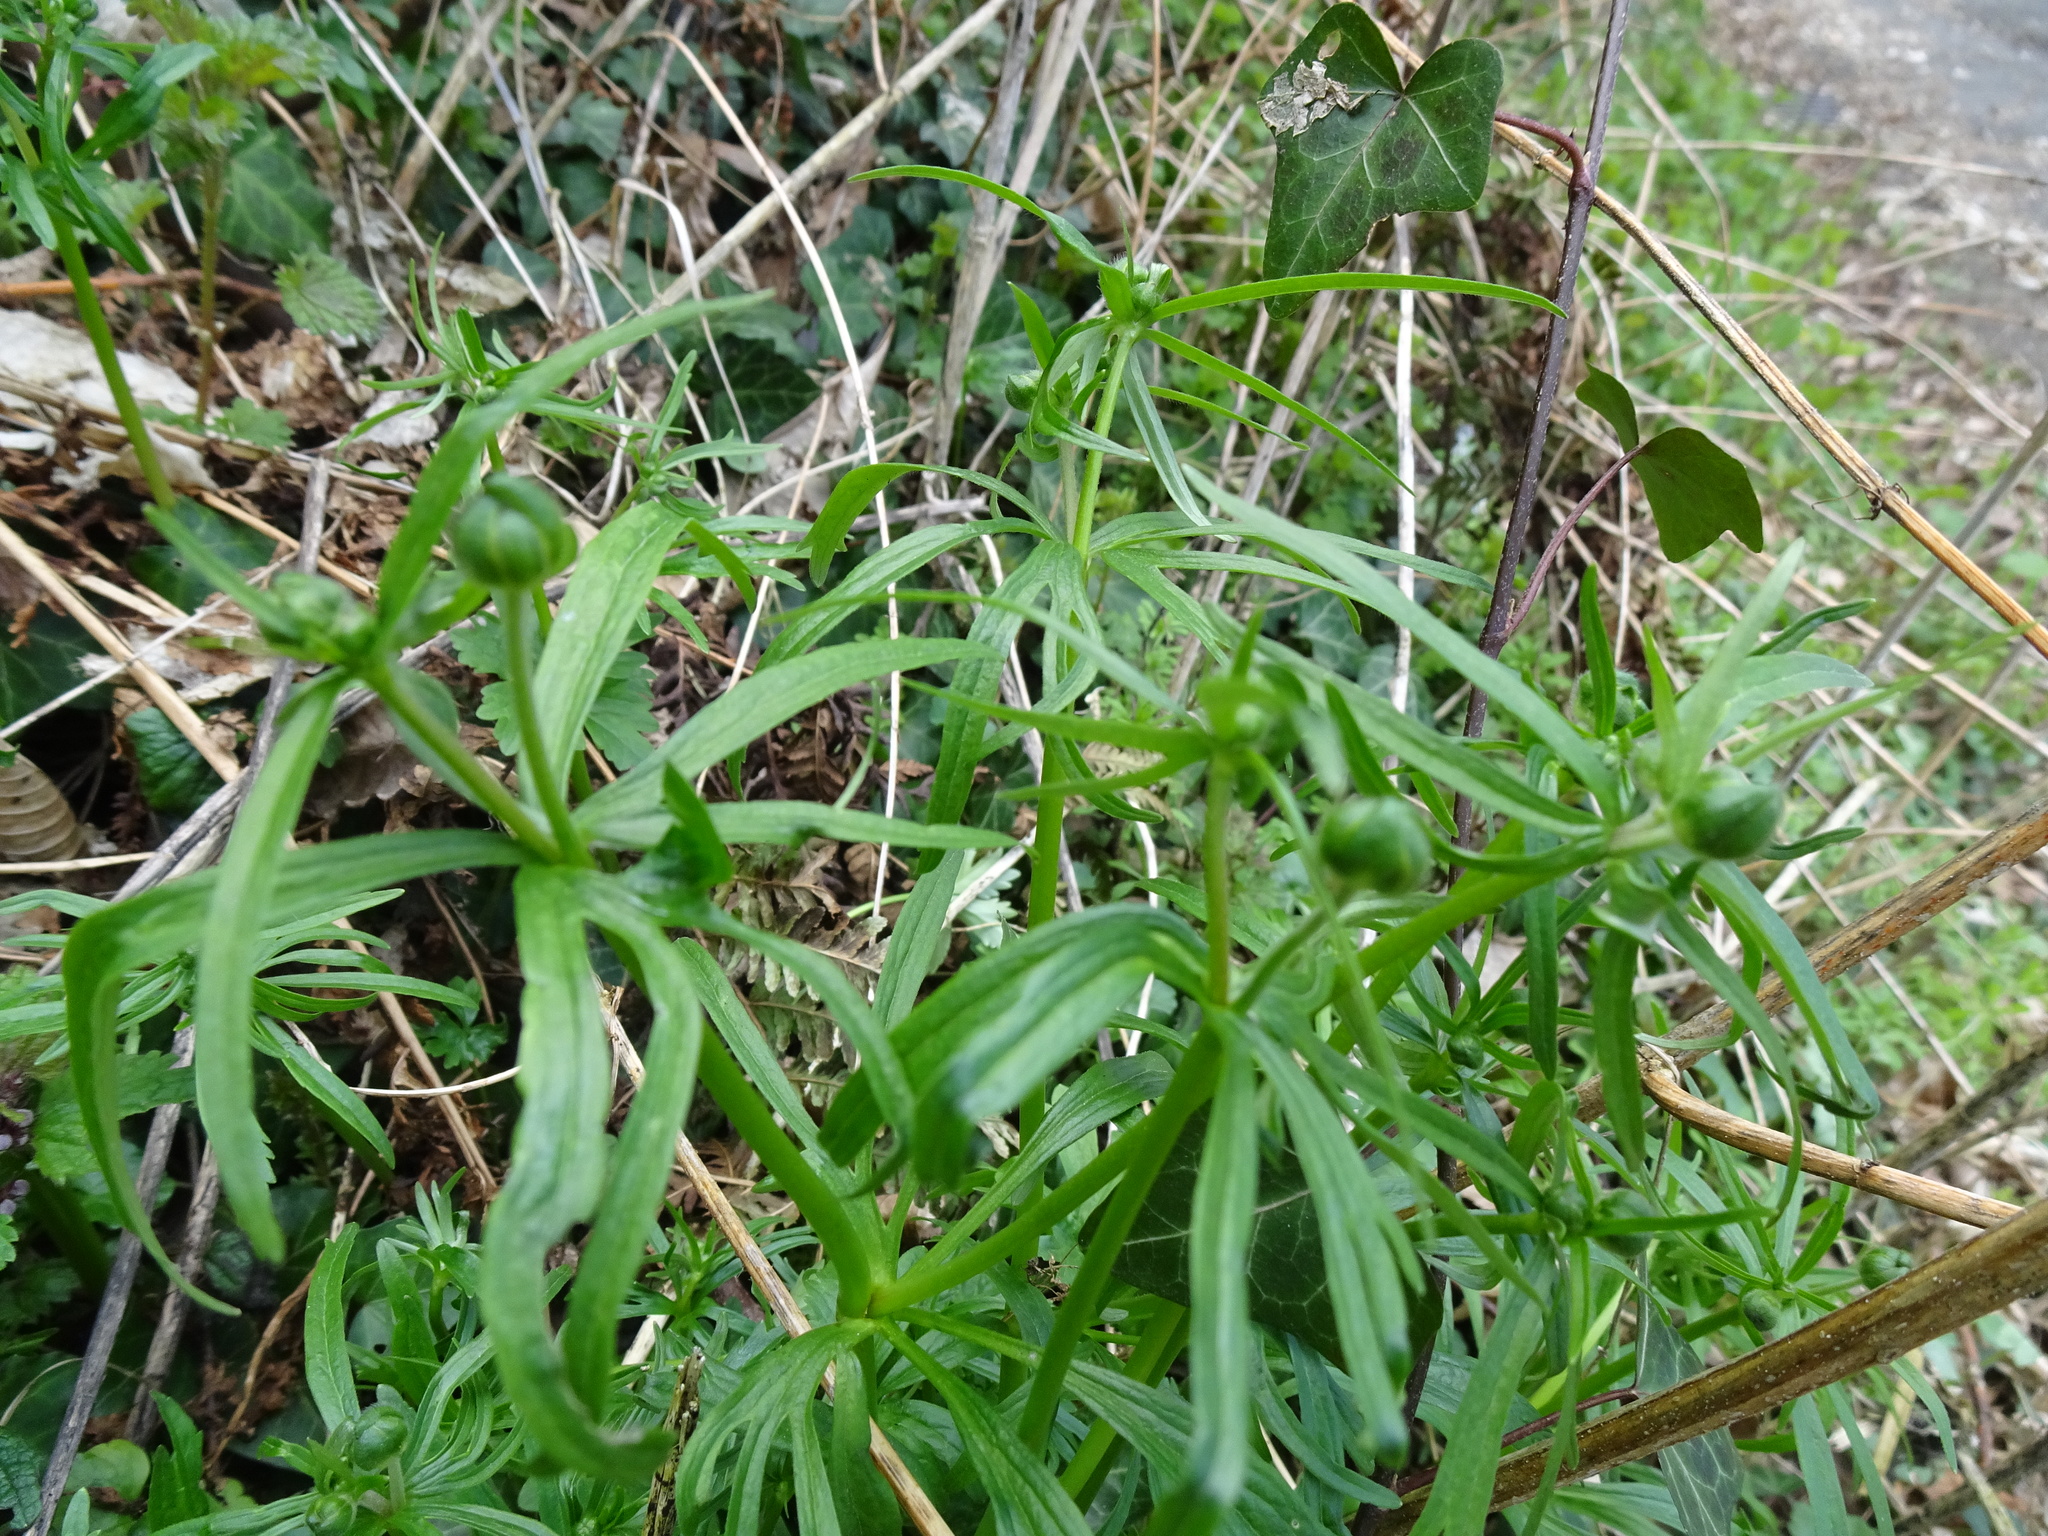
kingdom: Plantae
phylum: Tracheophyta
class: Magnoliopsida
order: Ranunculales
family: Ranunculaceae
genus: Ranunculus
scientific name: Ranunculus auricomus
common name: Goldilocks buttercup
